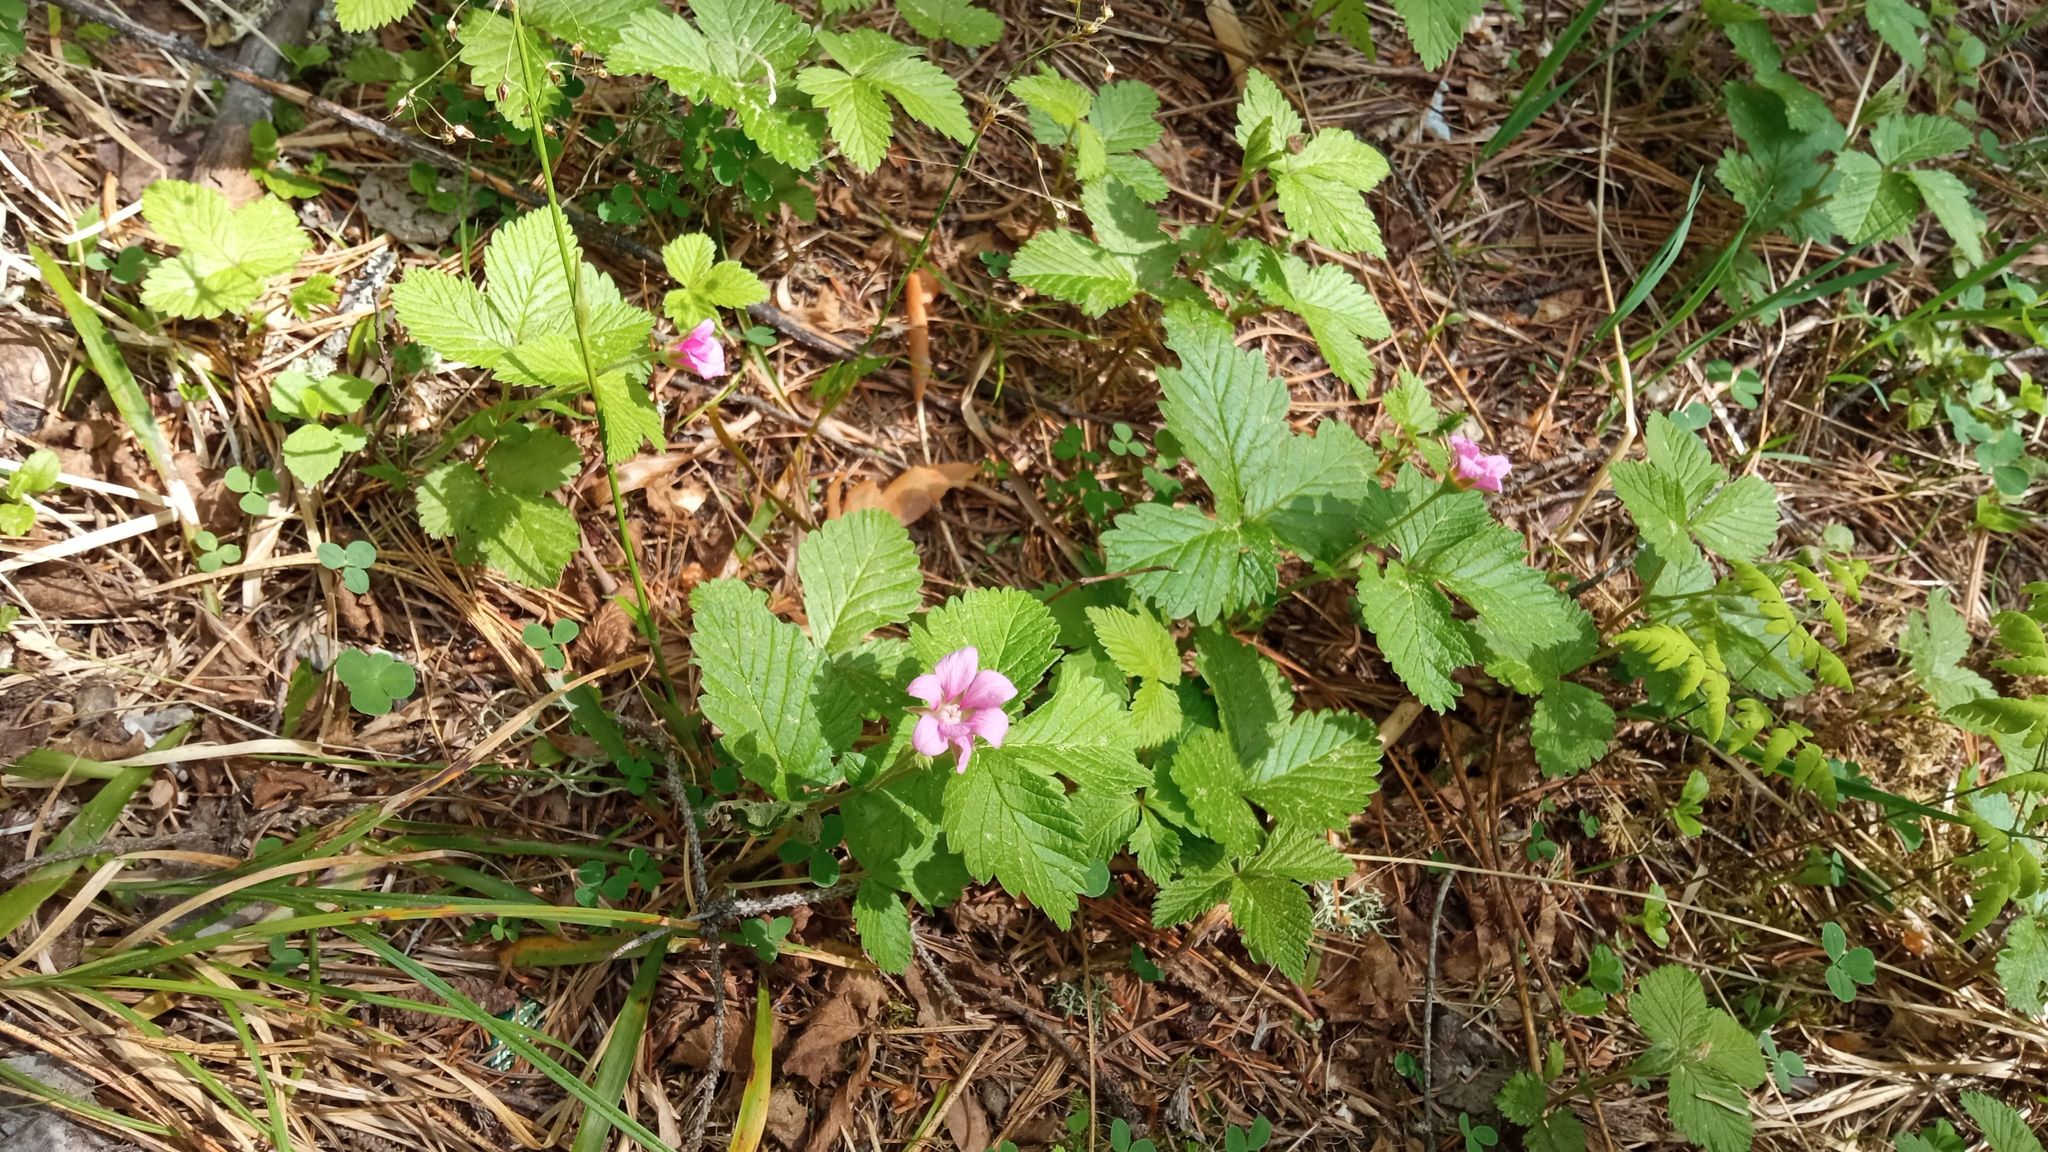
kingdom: Plantae
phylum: Tracheophyta
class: Magnoliopsida
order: Rosales
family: Rosaceae
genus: Rubus
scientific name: Rubus arcticus
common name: Arctic bramble
